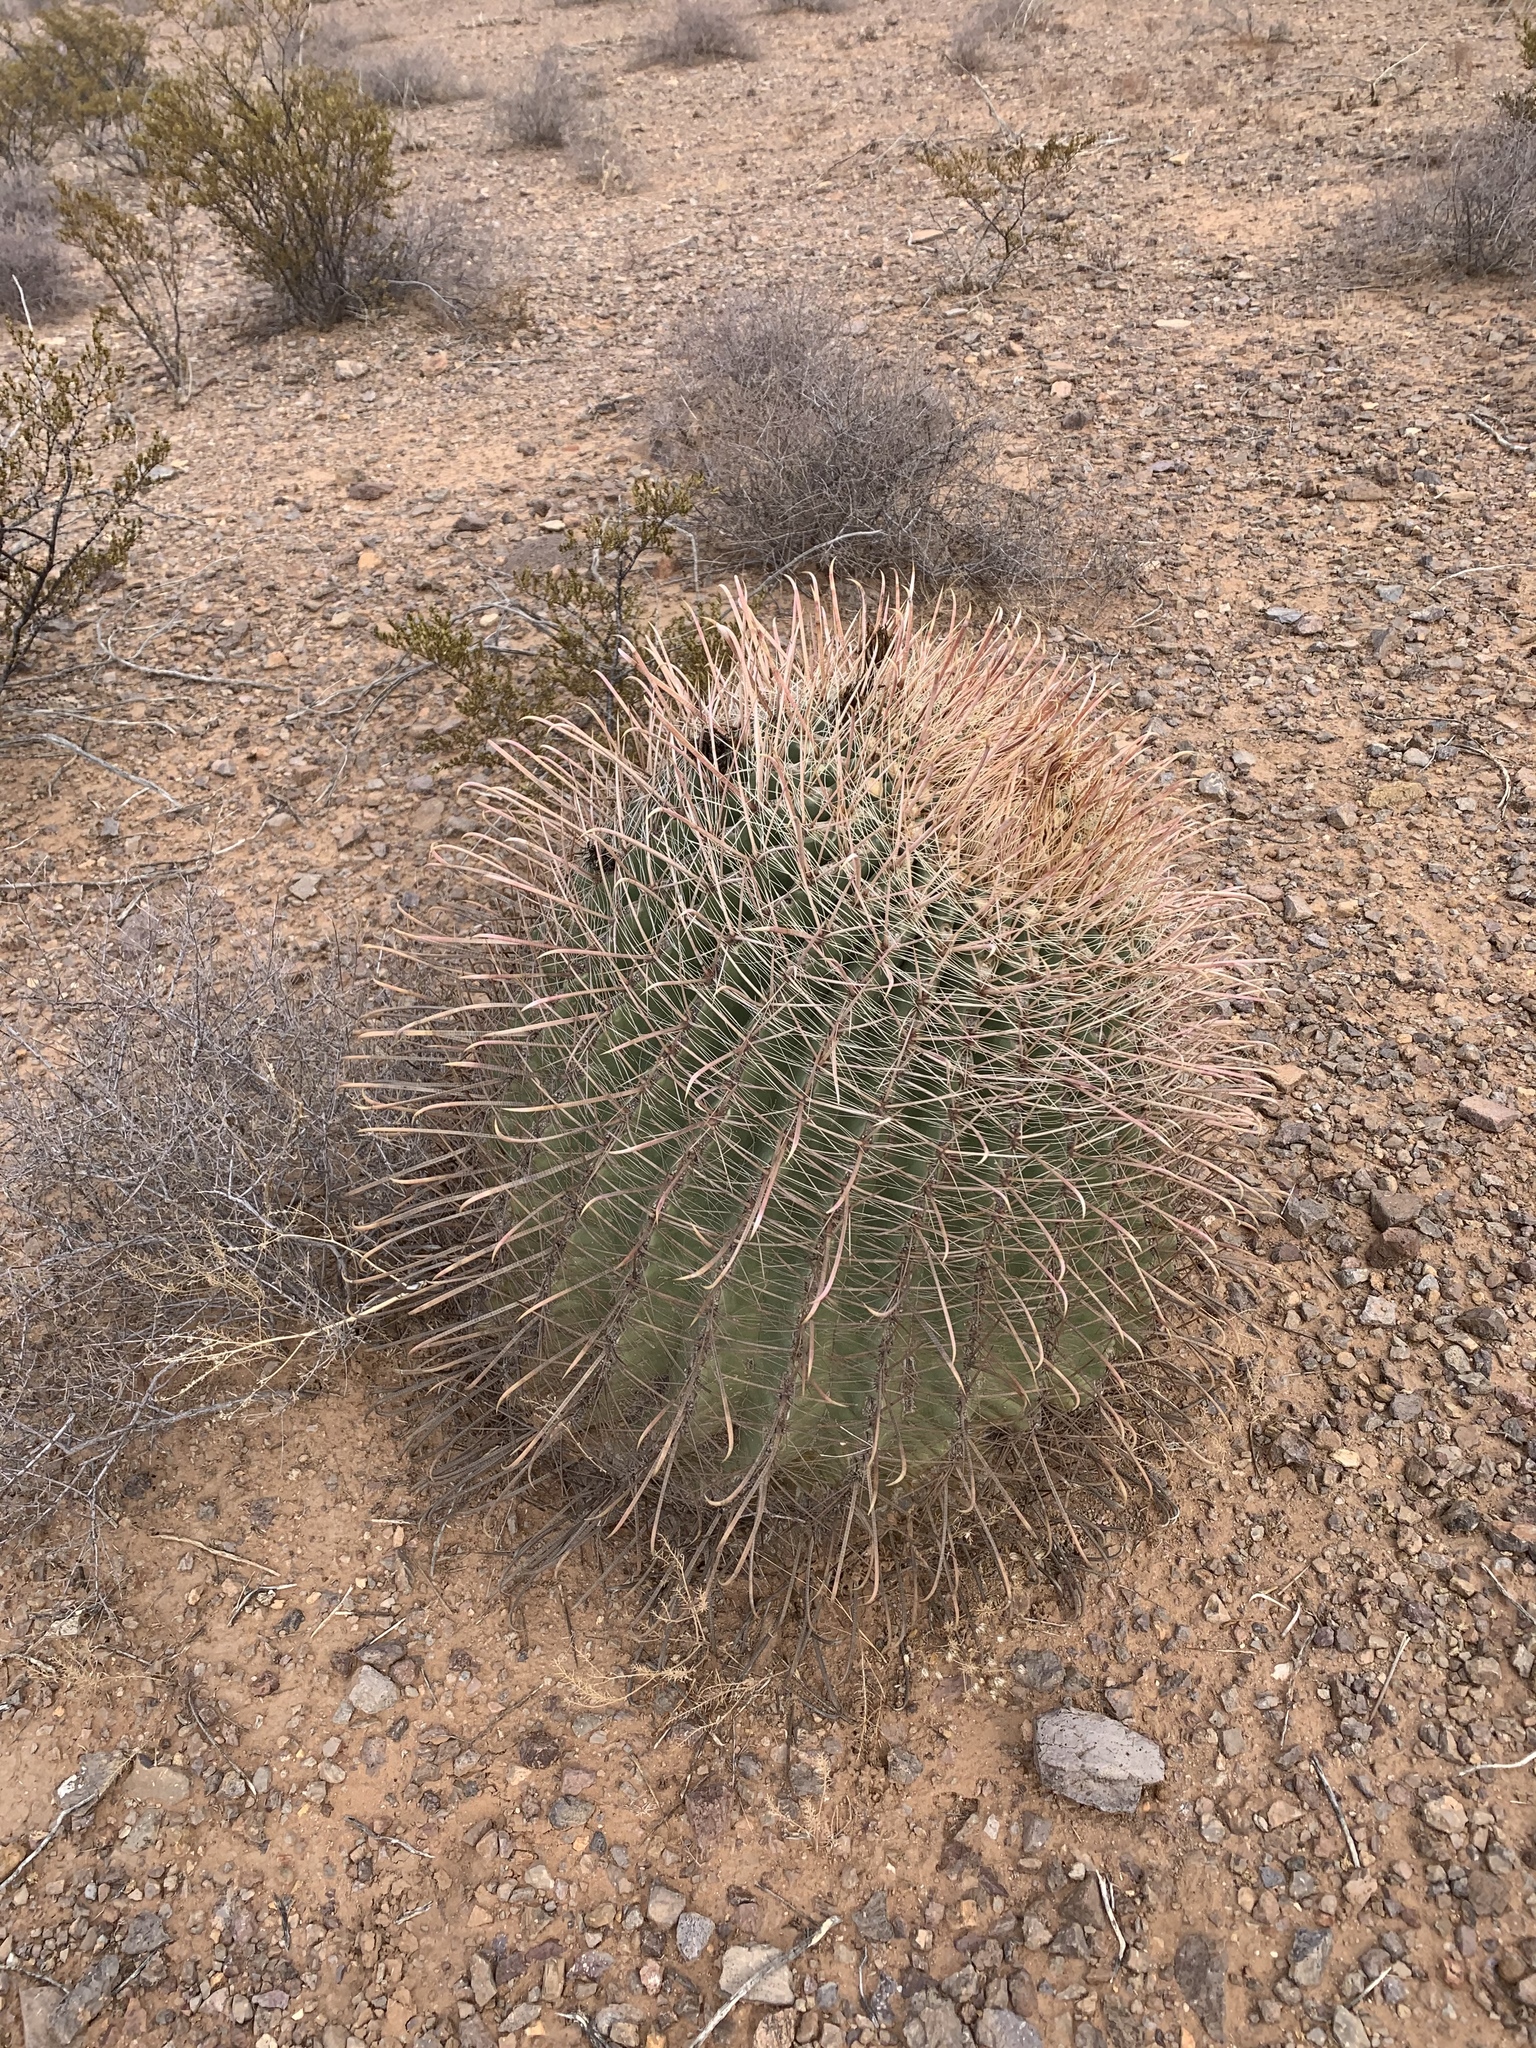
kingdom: Plantae
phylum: Tracheophyta
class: Magnoliopsida
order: Caryophyllales
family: Cactaceae
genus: Ferocactus
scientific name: Ferocactus wislizeni
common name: Candy barrel cactus
